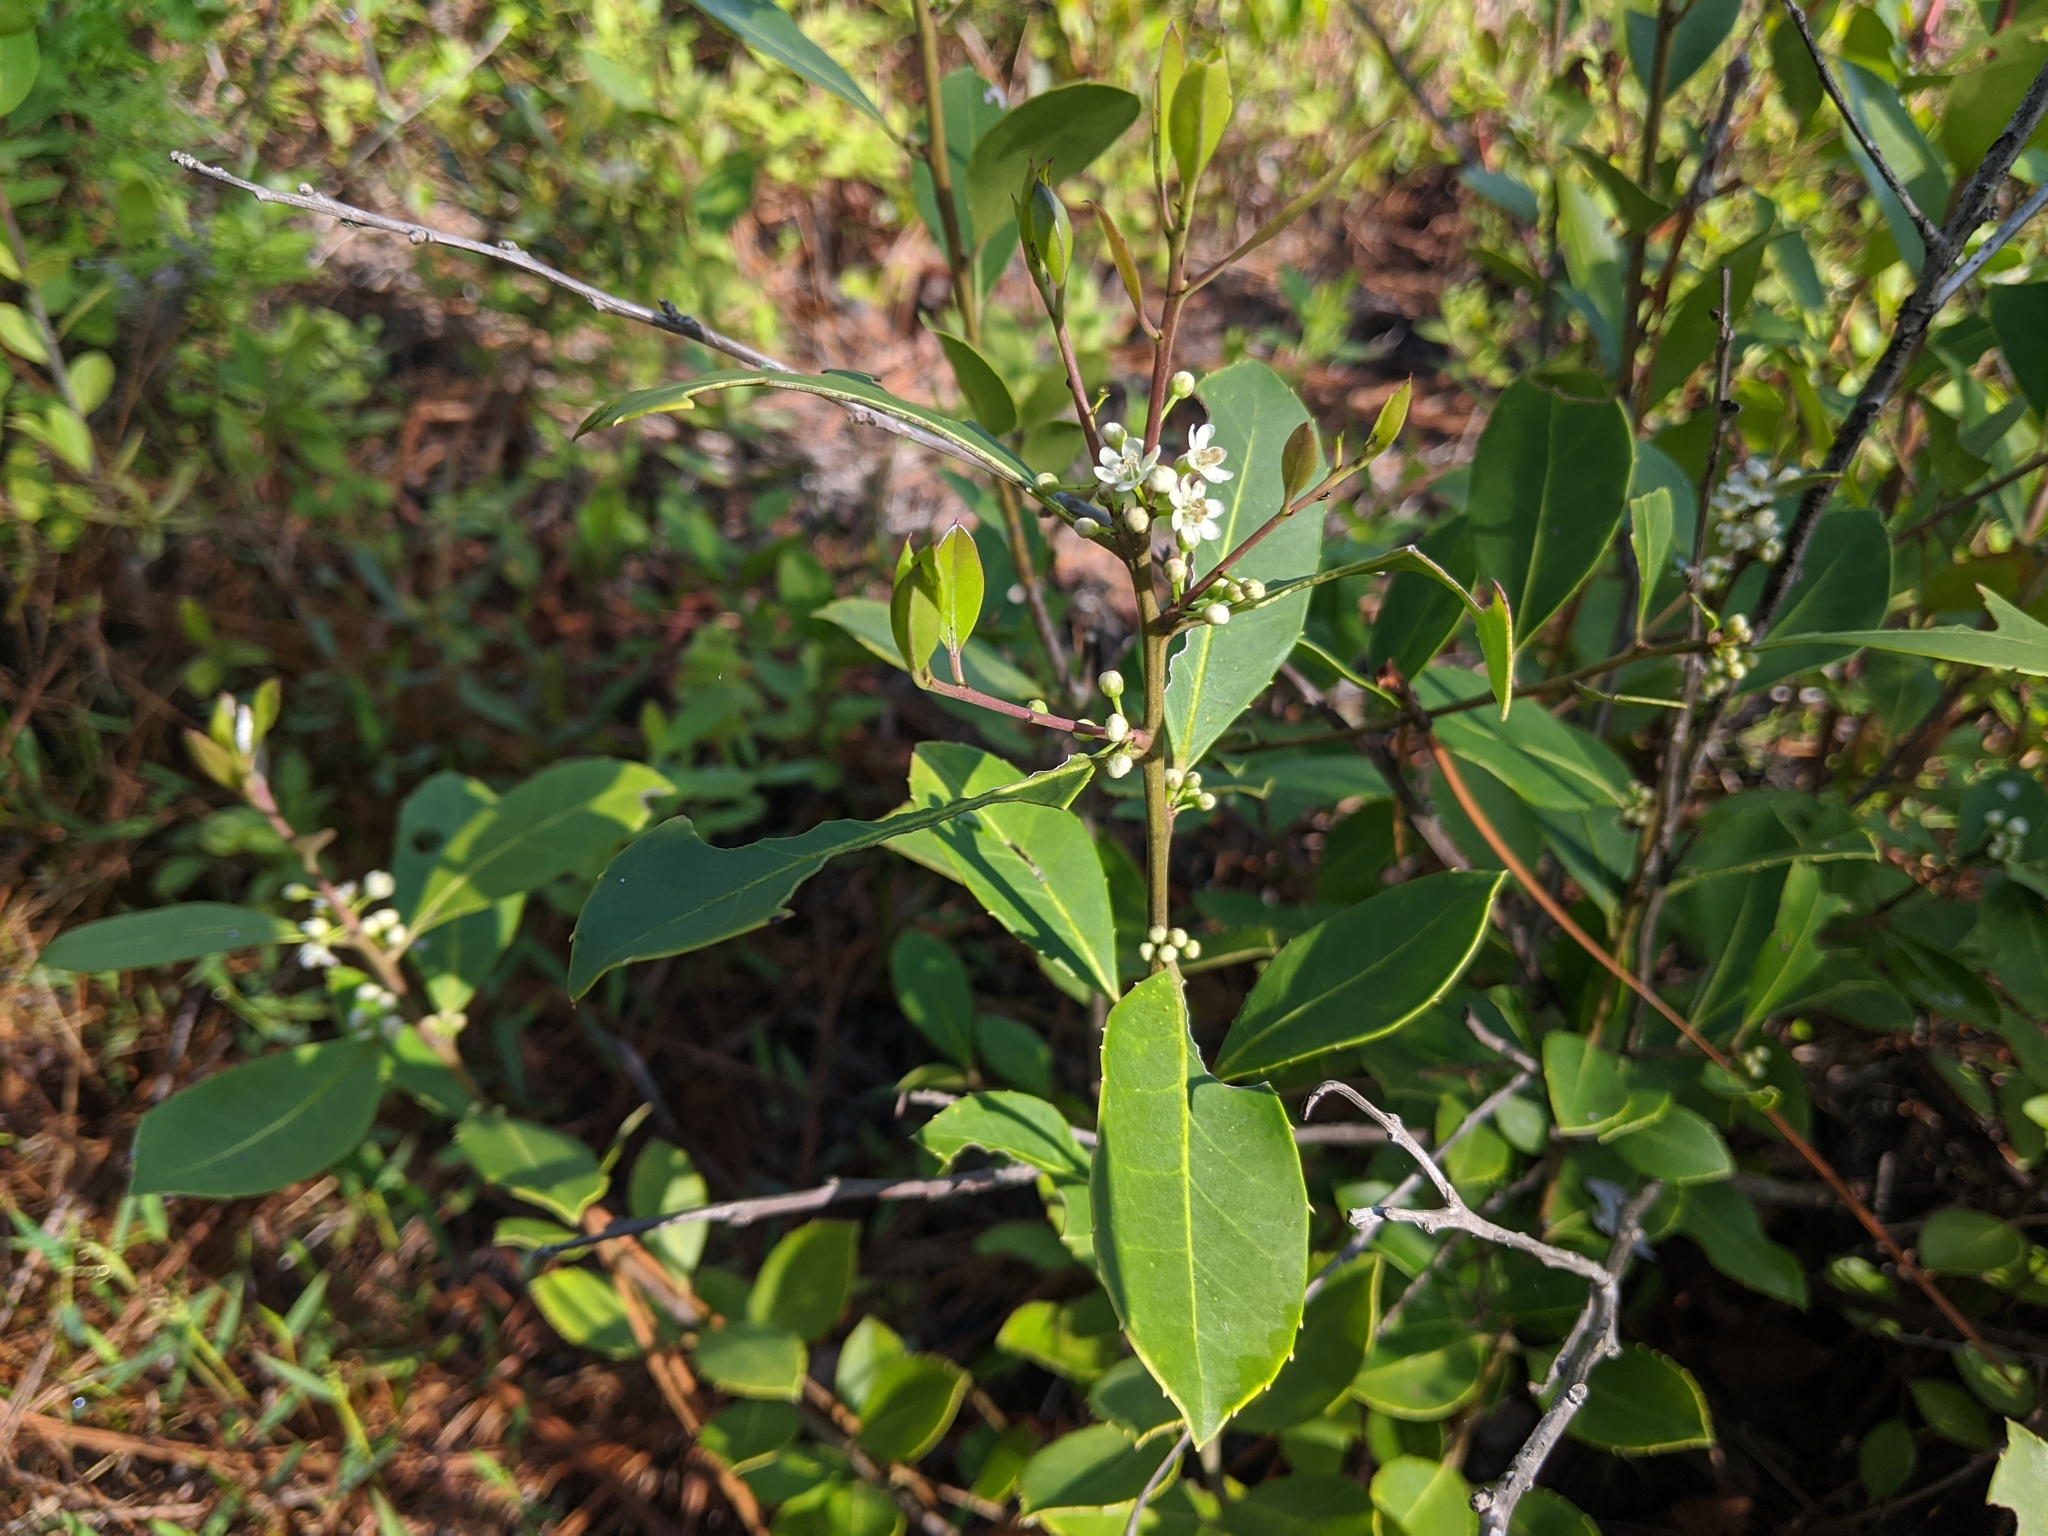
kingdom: Plantae
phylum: Tracheophyta
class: Magnoliopsida
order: Aquifoliales
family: Aquifoliaceae
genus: Ilex
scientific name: Ilex coriacea
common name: Sweet gallberry
